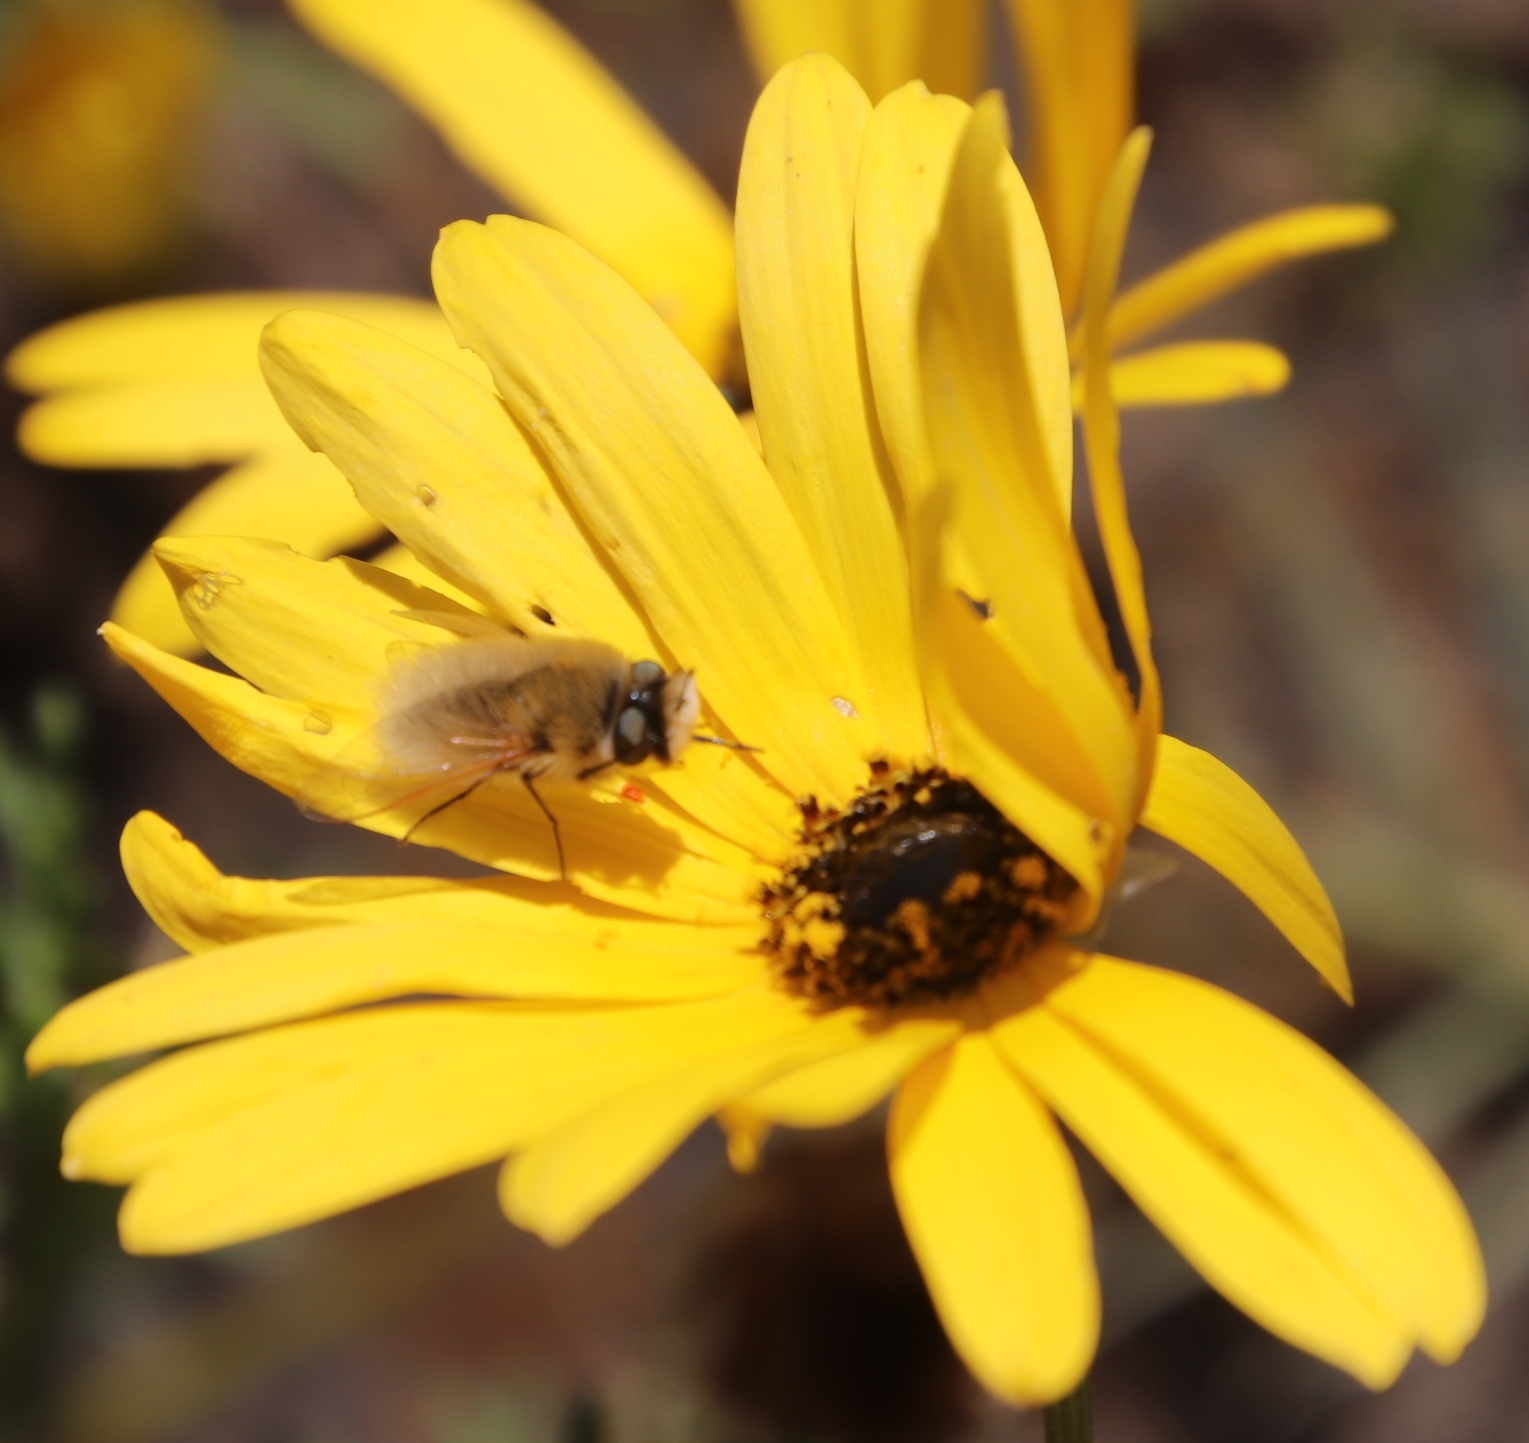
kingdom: Plantae
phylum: Tracheophyta
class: Magnoliopsida
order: Asterales
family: Asteraceae
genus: Dimorphotheca
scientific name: Dimorphotheca sinuata
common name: Glandular cape marigold
